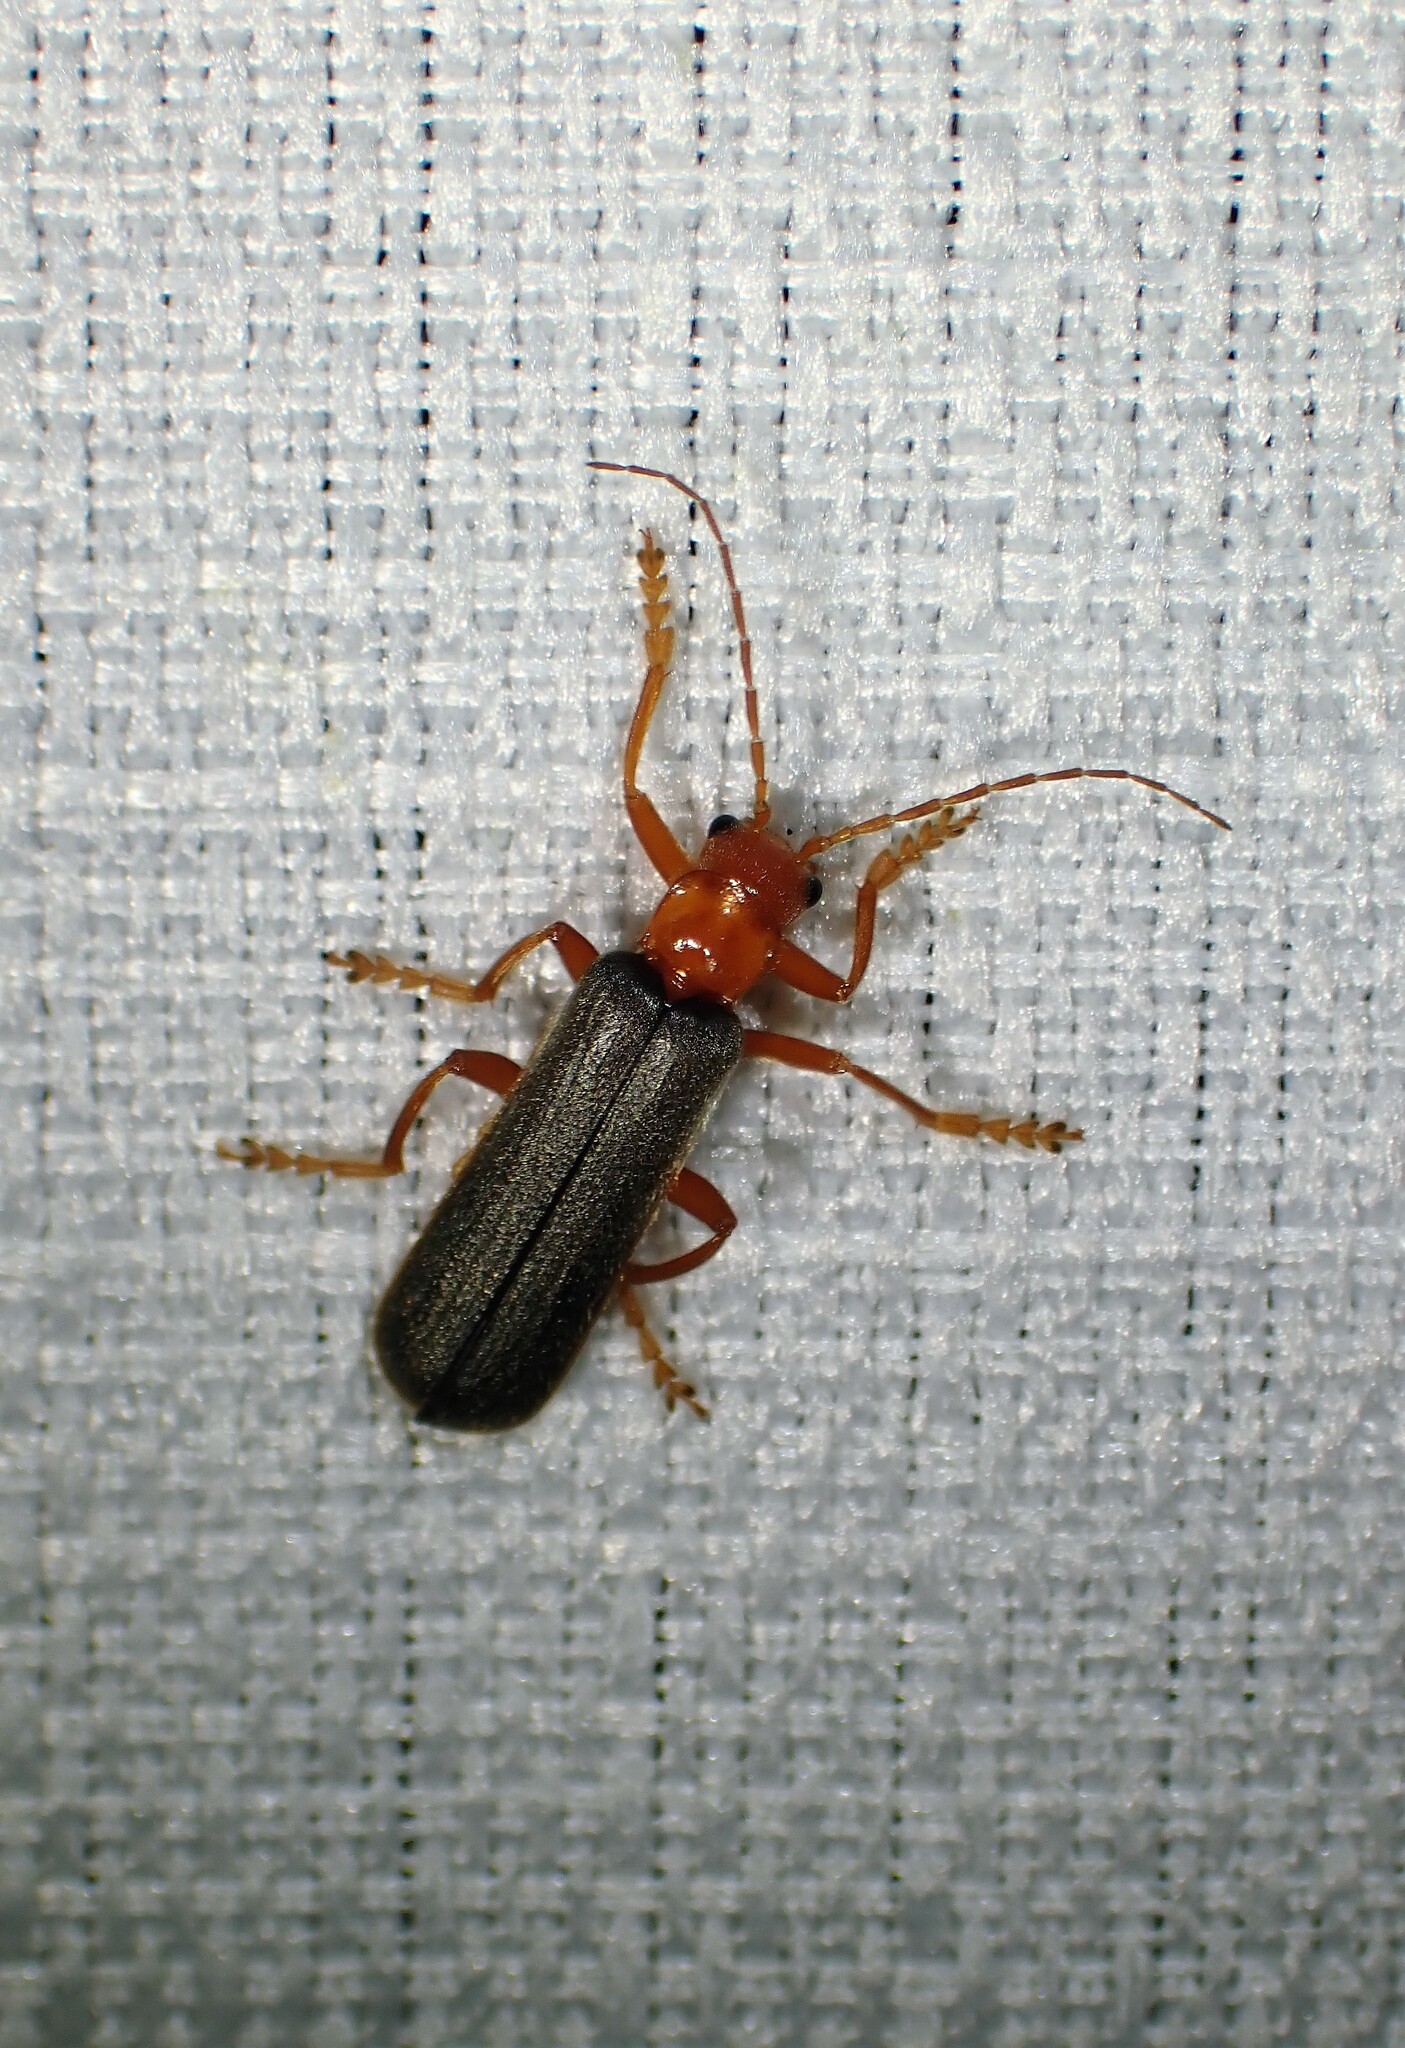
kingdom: Animalia
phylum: Arthropoda
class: Insecta
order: Coleoptera
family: Cantharidae
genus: Pacificanthia
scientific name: Pacificanthia rotundicollis
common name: Brown leatherwing beetle
